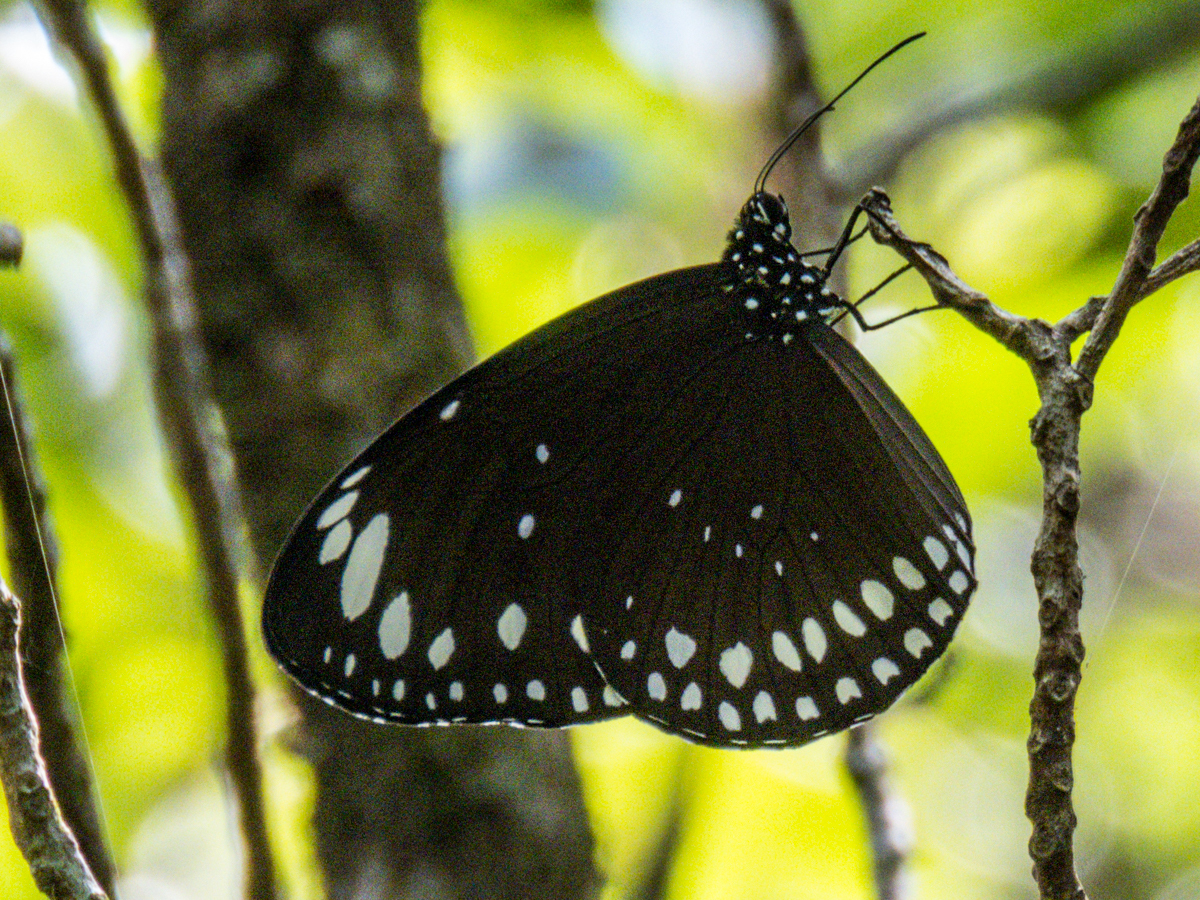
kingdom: Animalia
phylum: Arthropoda
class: Insecta
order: Lepidoptera
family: Nymphalidae
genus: Euploea
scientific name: Euploea crameri
